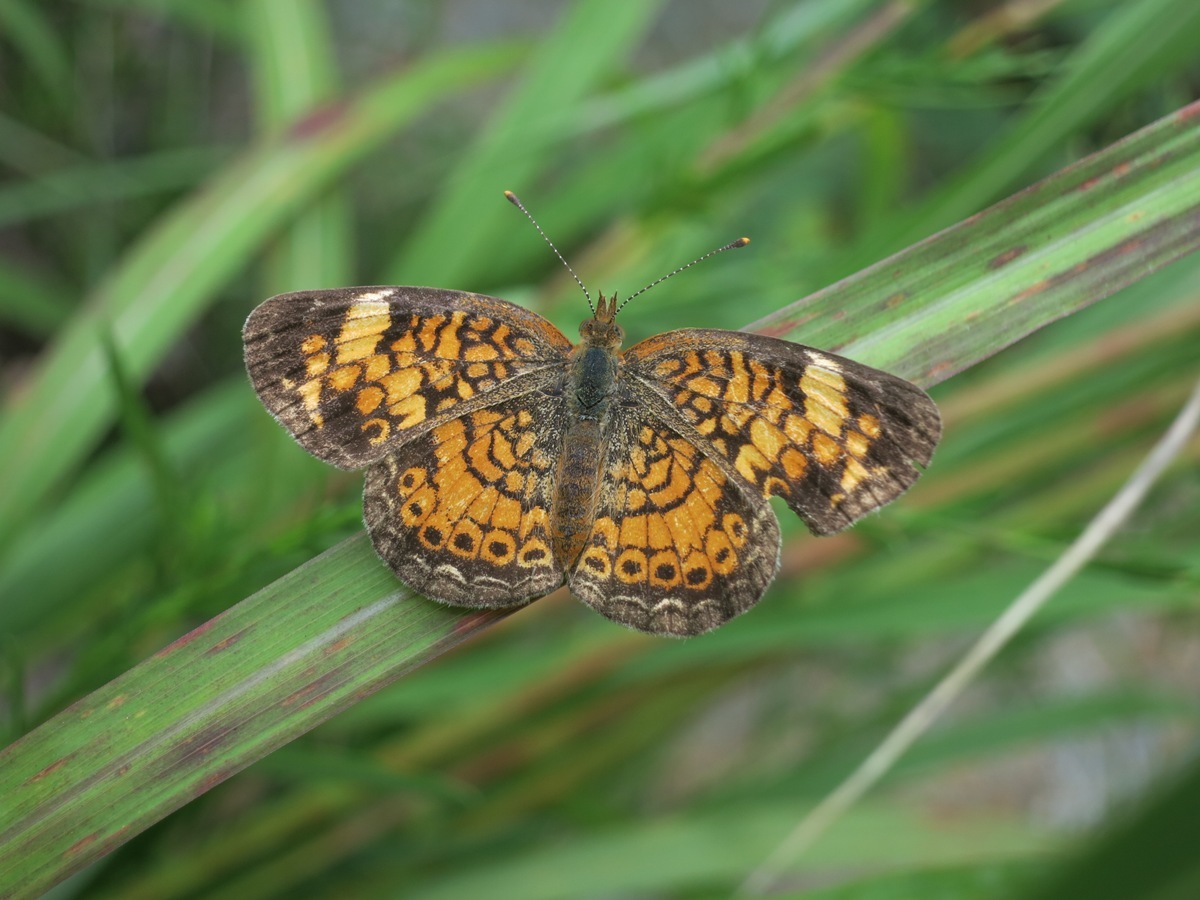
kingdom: Animalia
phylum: Arthropoda
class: Insecta
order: Lepidoptera
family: Nymphalidae
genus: Phyciodes
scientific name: Phyciodes tharos
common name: Pearl crescent
